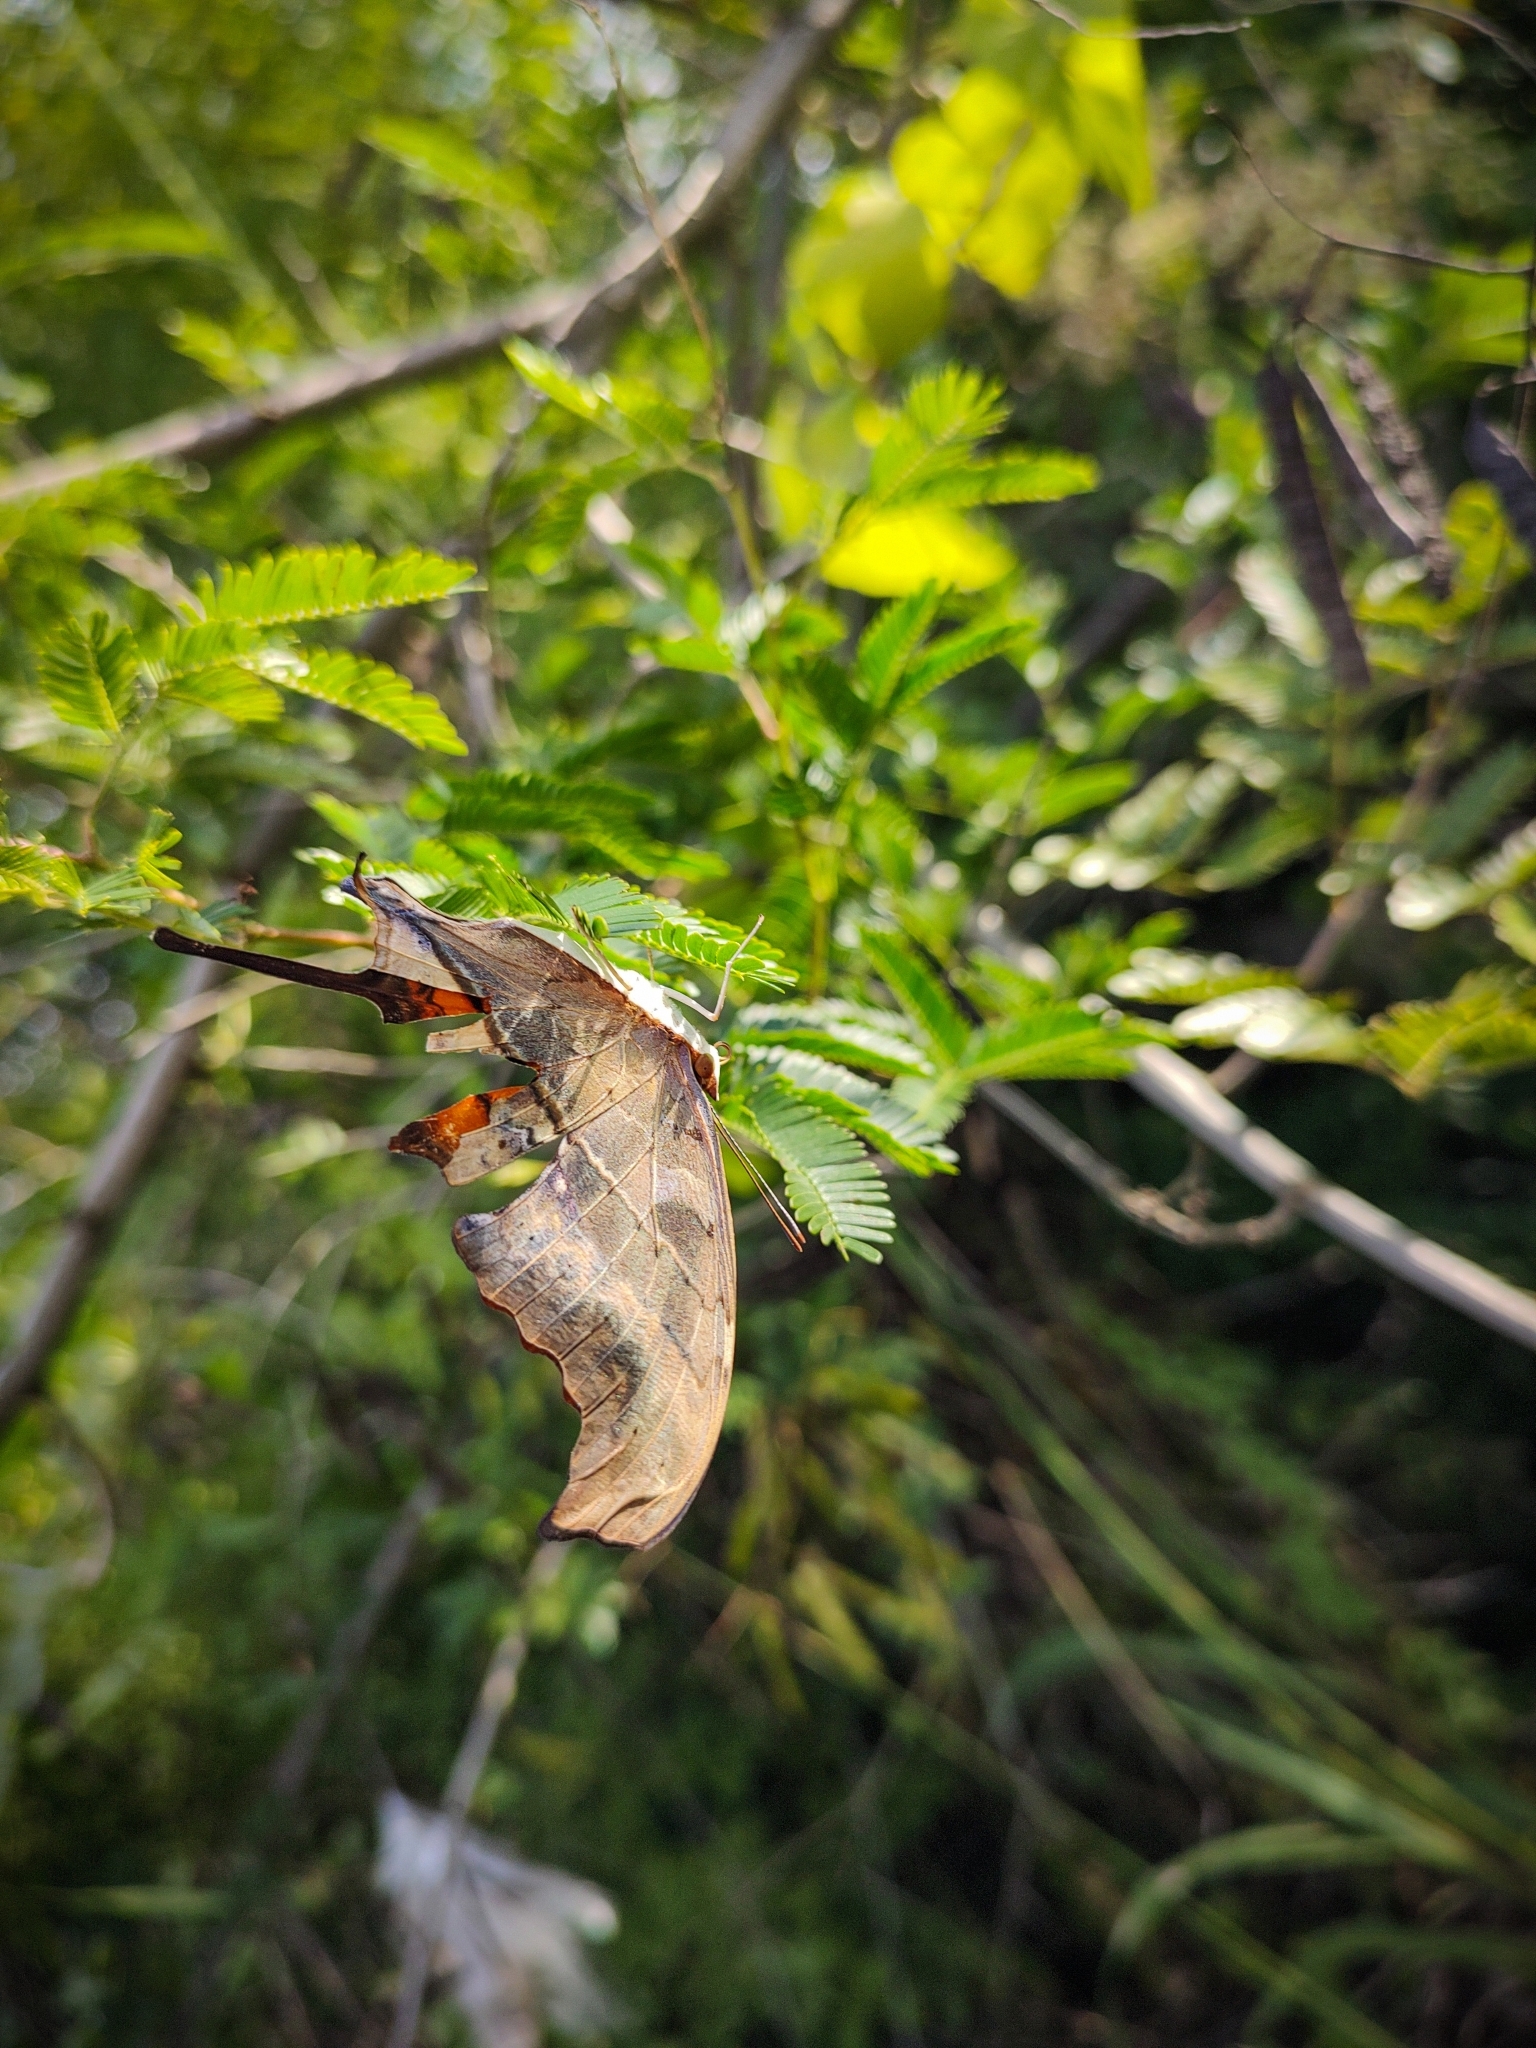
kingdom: Animalia
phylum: Arthropoda
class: Insecta
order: Lepidoptera
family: Nymphalidae
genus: Marpesia
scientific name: Marpesia petreus
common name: Red dagger wing
